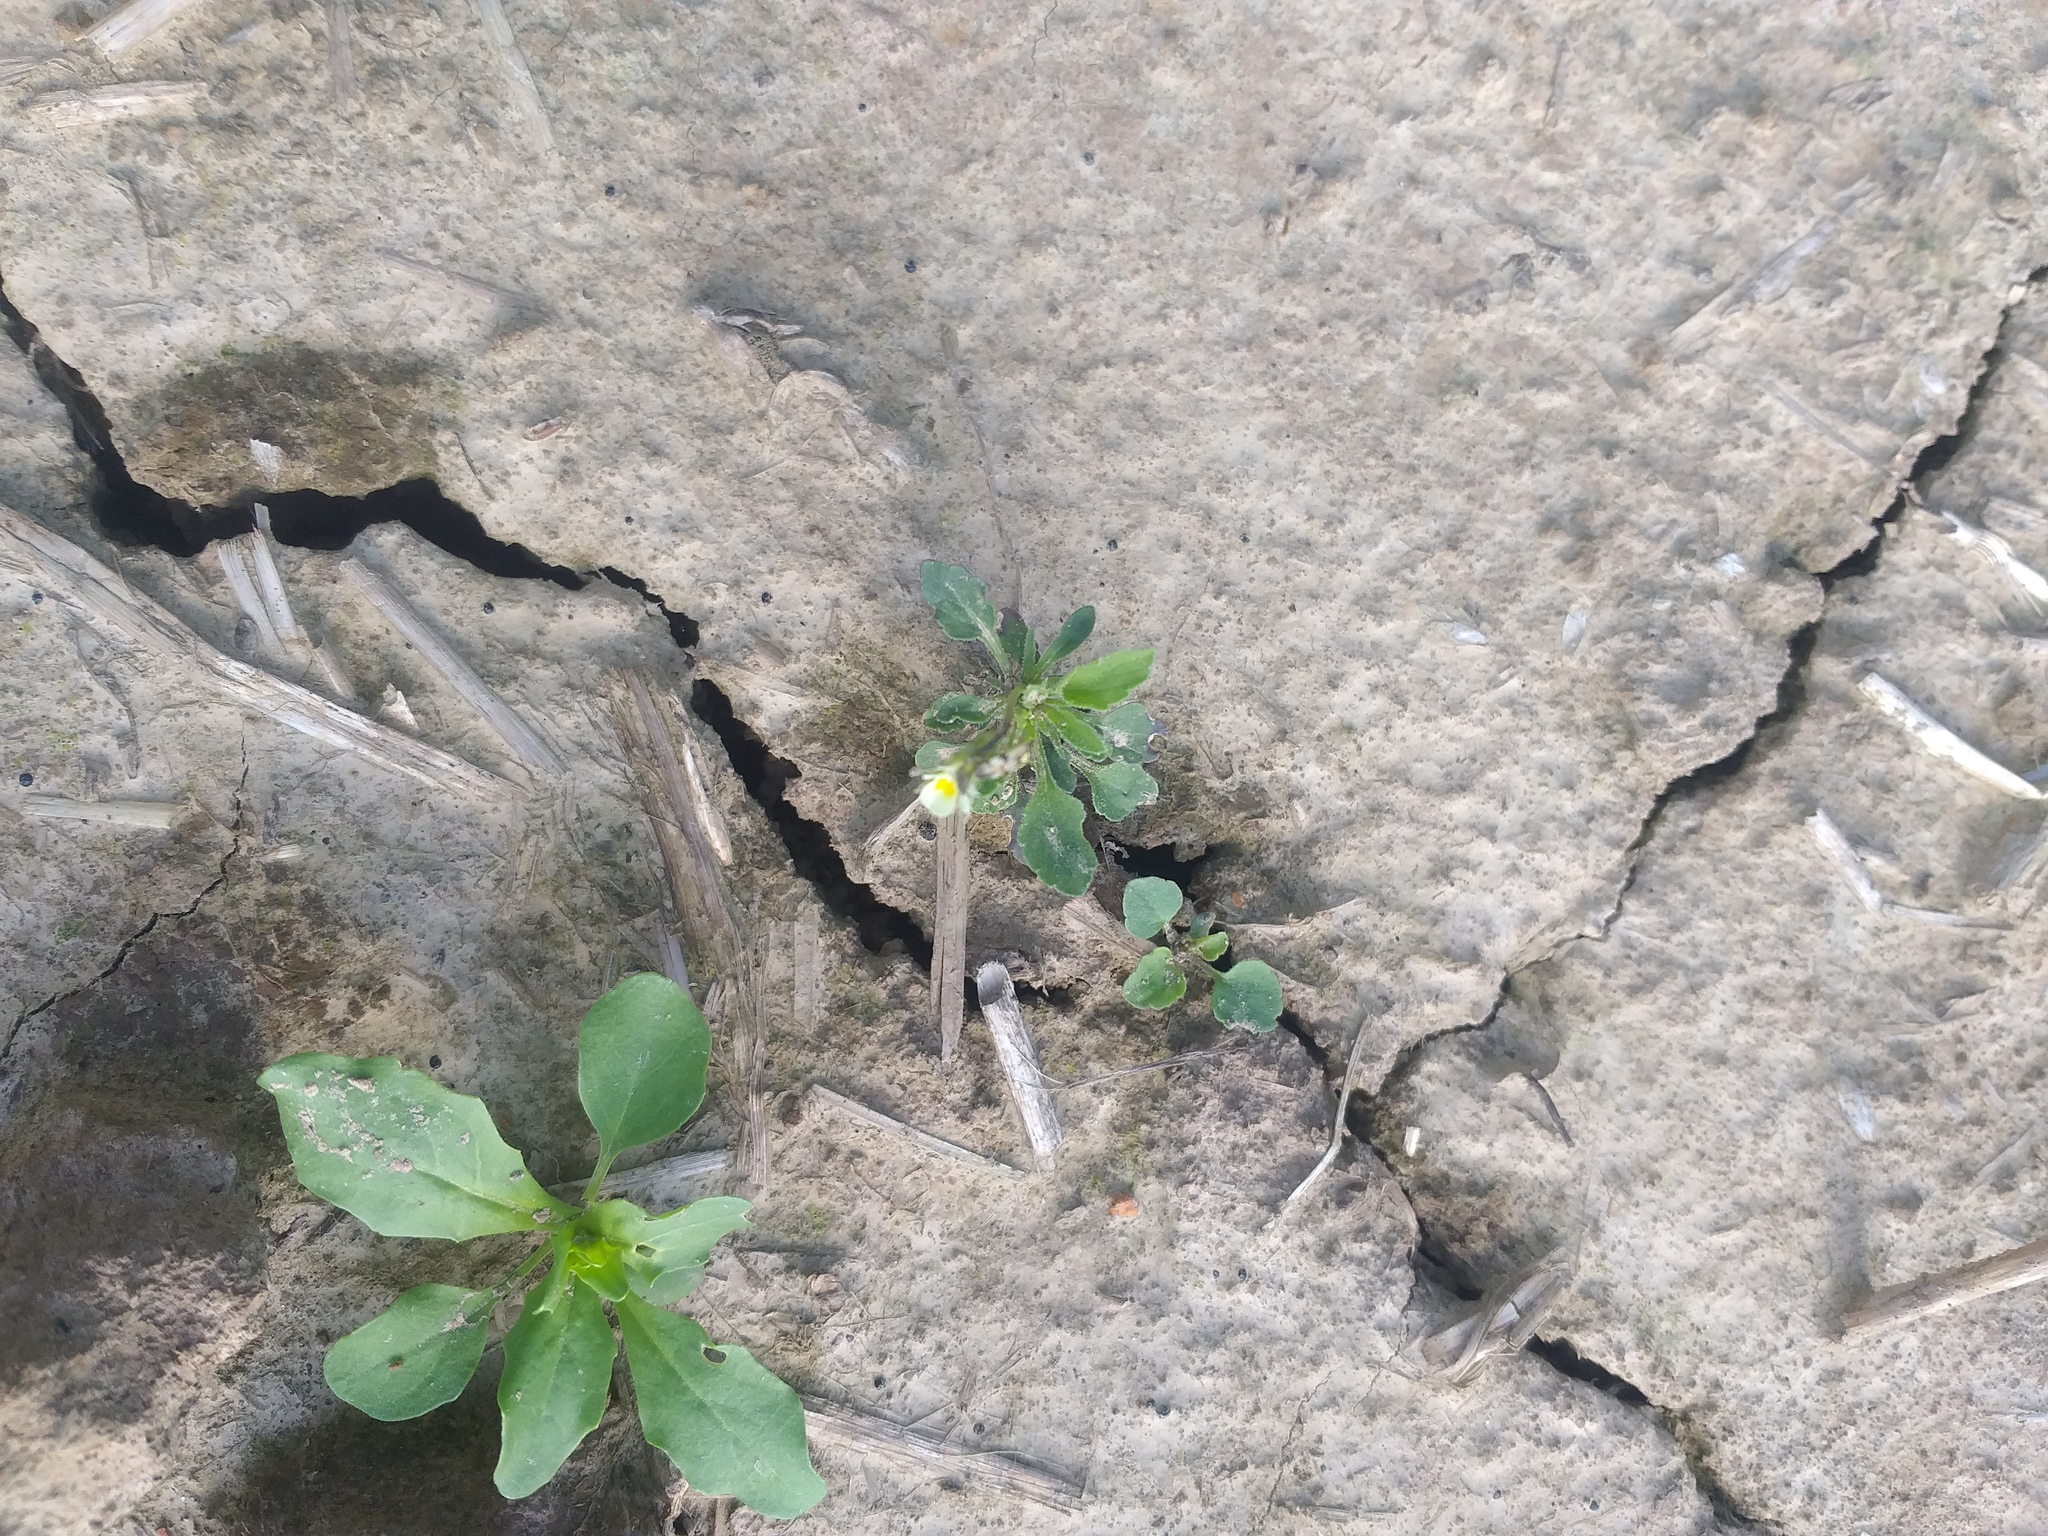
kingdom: Plantae
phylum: Tracheophyta
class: Magnoliopsida
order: Malpighiales
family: Violaceae
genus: Viola
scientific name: Viola arvensis
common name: Field pansy
